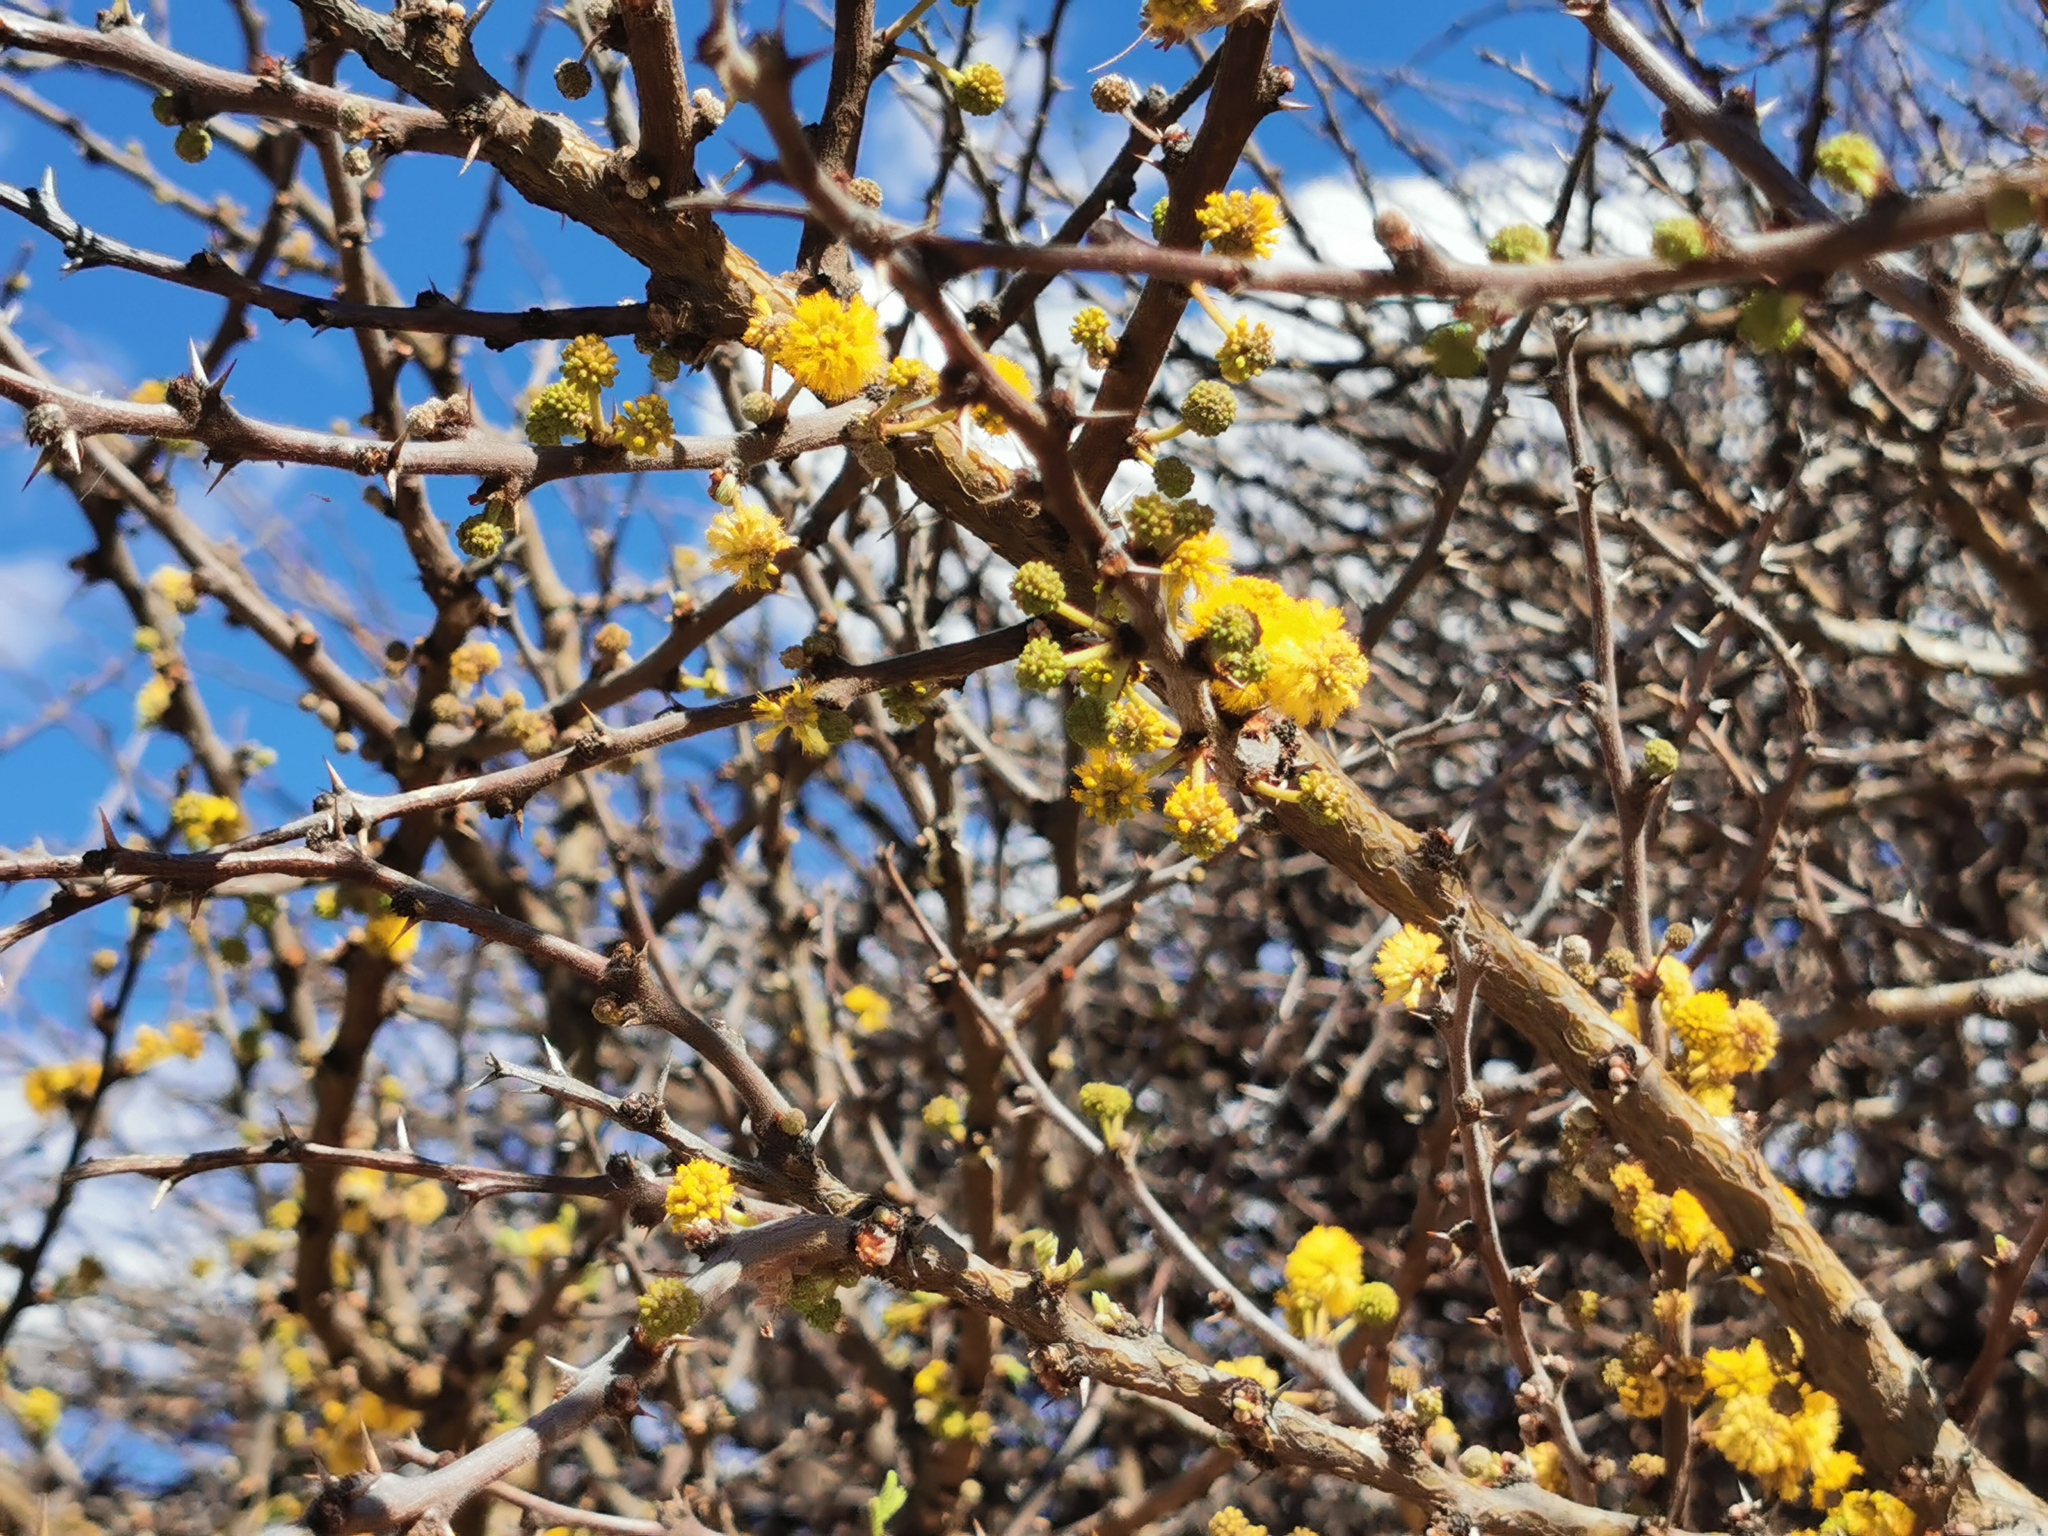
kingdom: Plantae
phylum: Tracheophyta
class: Magnoliopsida
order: Fabales
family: Fabaceae
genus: Vachellia
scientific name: Vachellia schaffneri
